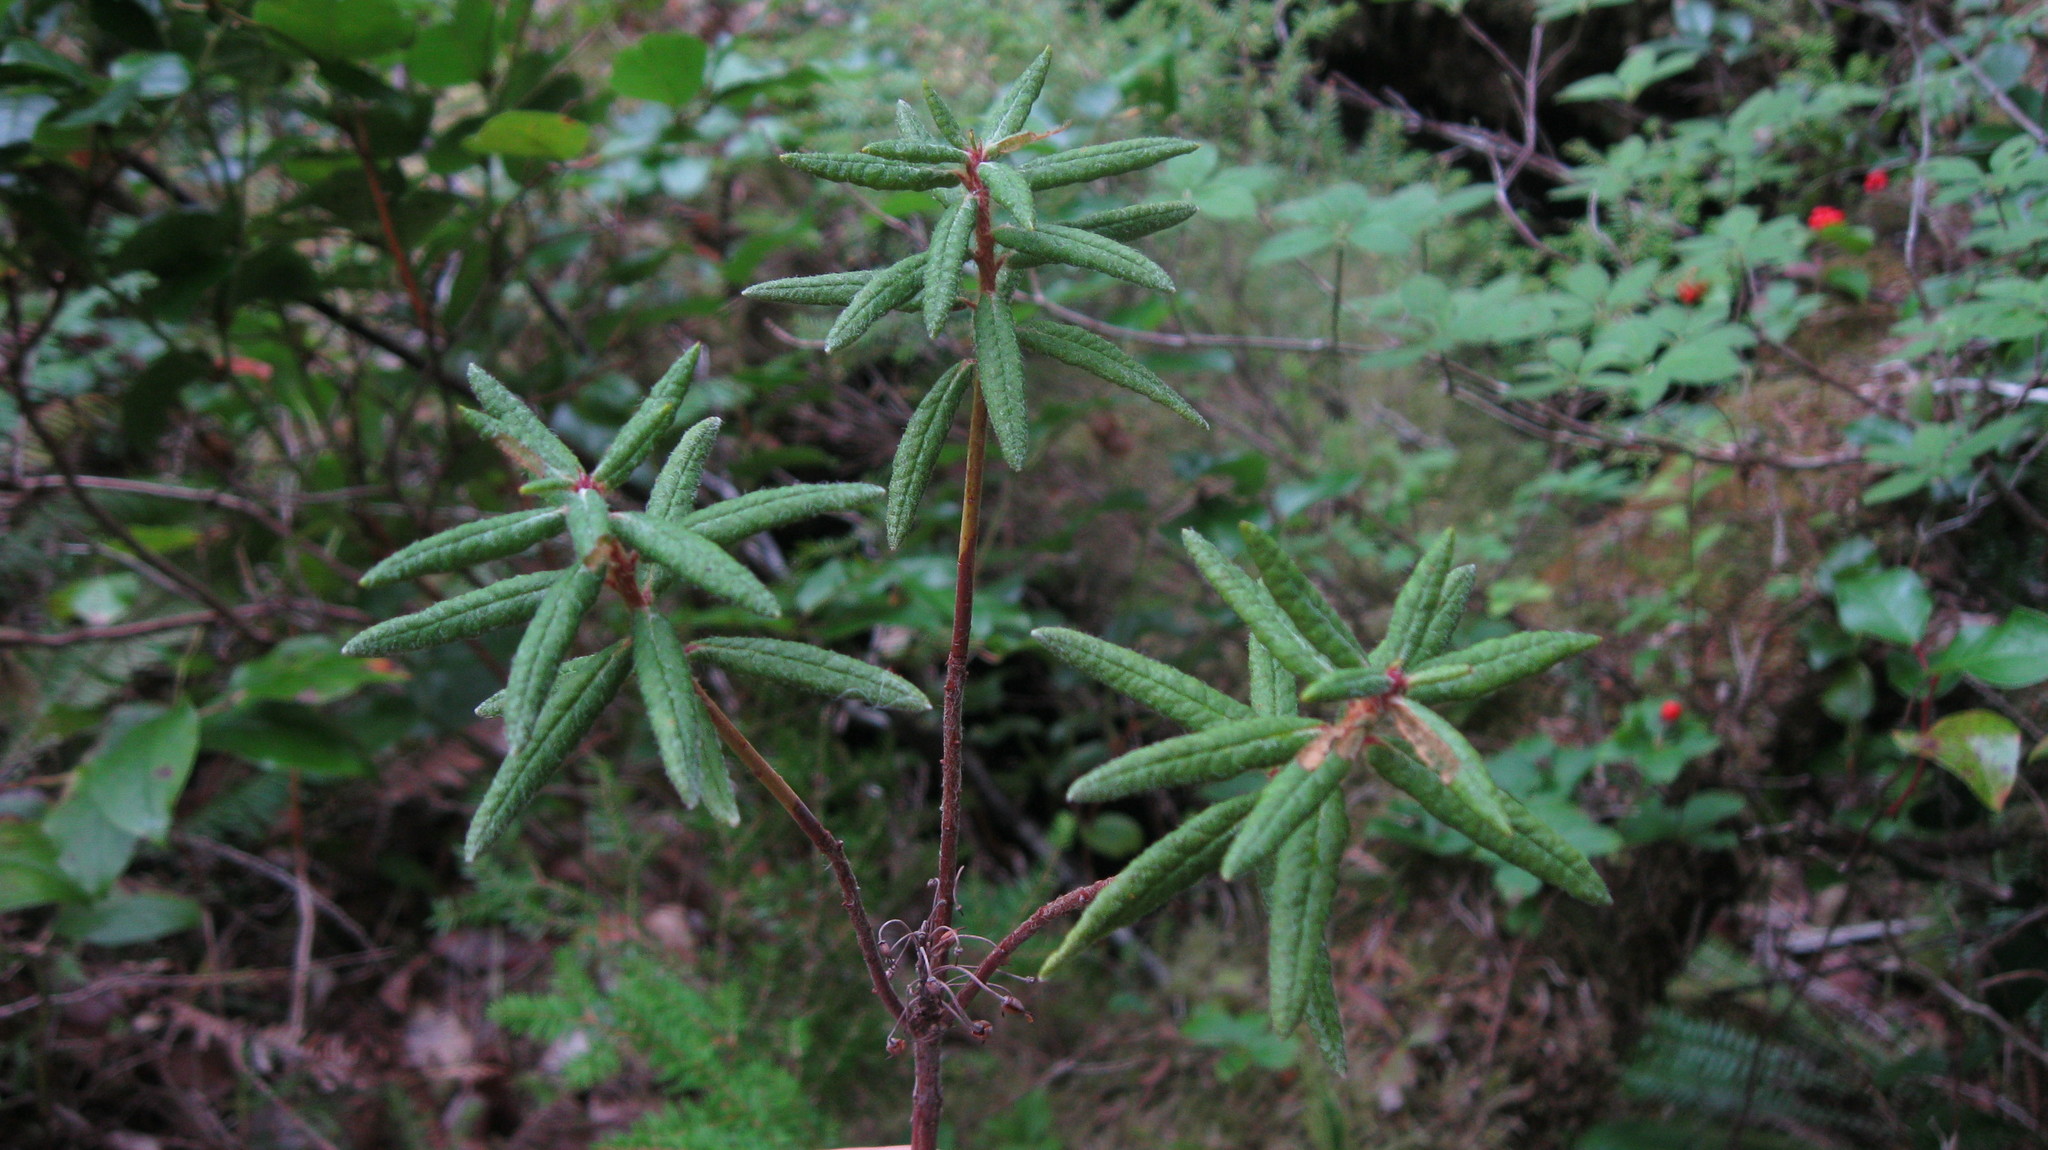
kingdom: Plantae
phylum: Tracheophyta
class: Magnoliopsida
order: Ericales
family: Ericaceae
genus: Rhododendron
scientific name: Rhododendron groenlandicum
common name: Bog labrador tea
